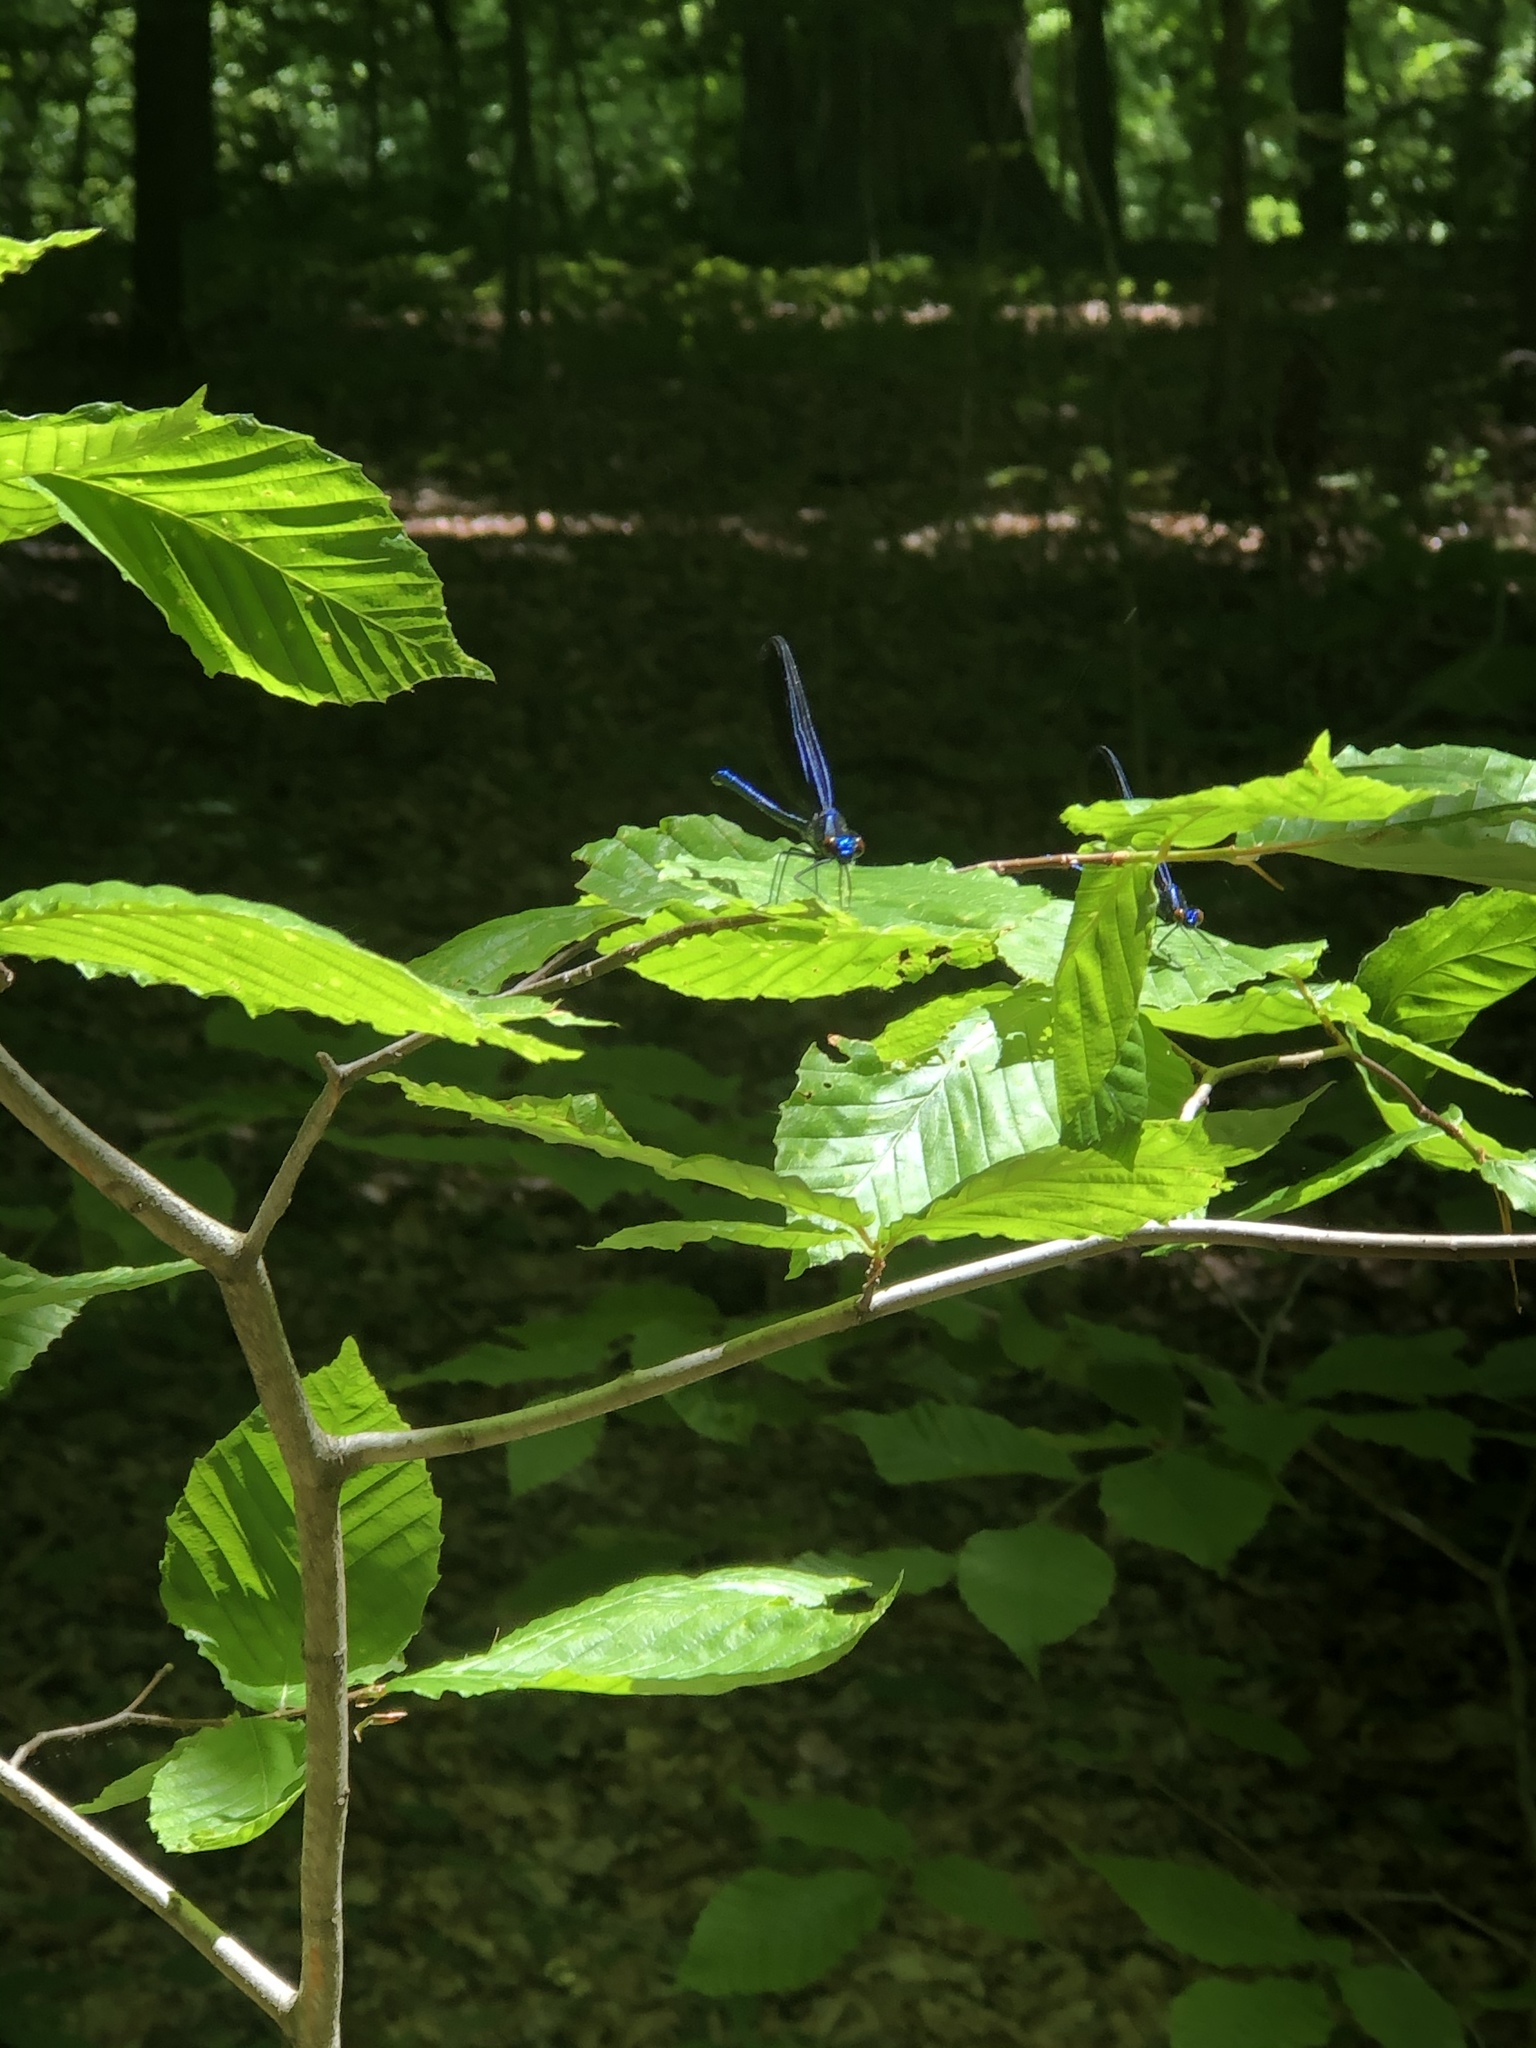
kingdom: Animalia
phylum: Arthropoda
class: Insecta
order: Odonata
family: Calopterygidae
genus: Calopteryx
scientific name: Calopteryx maculata
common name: Ebony jewelwing
